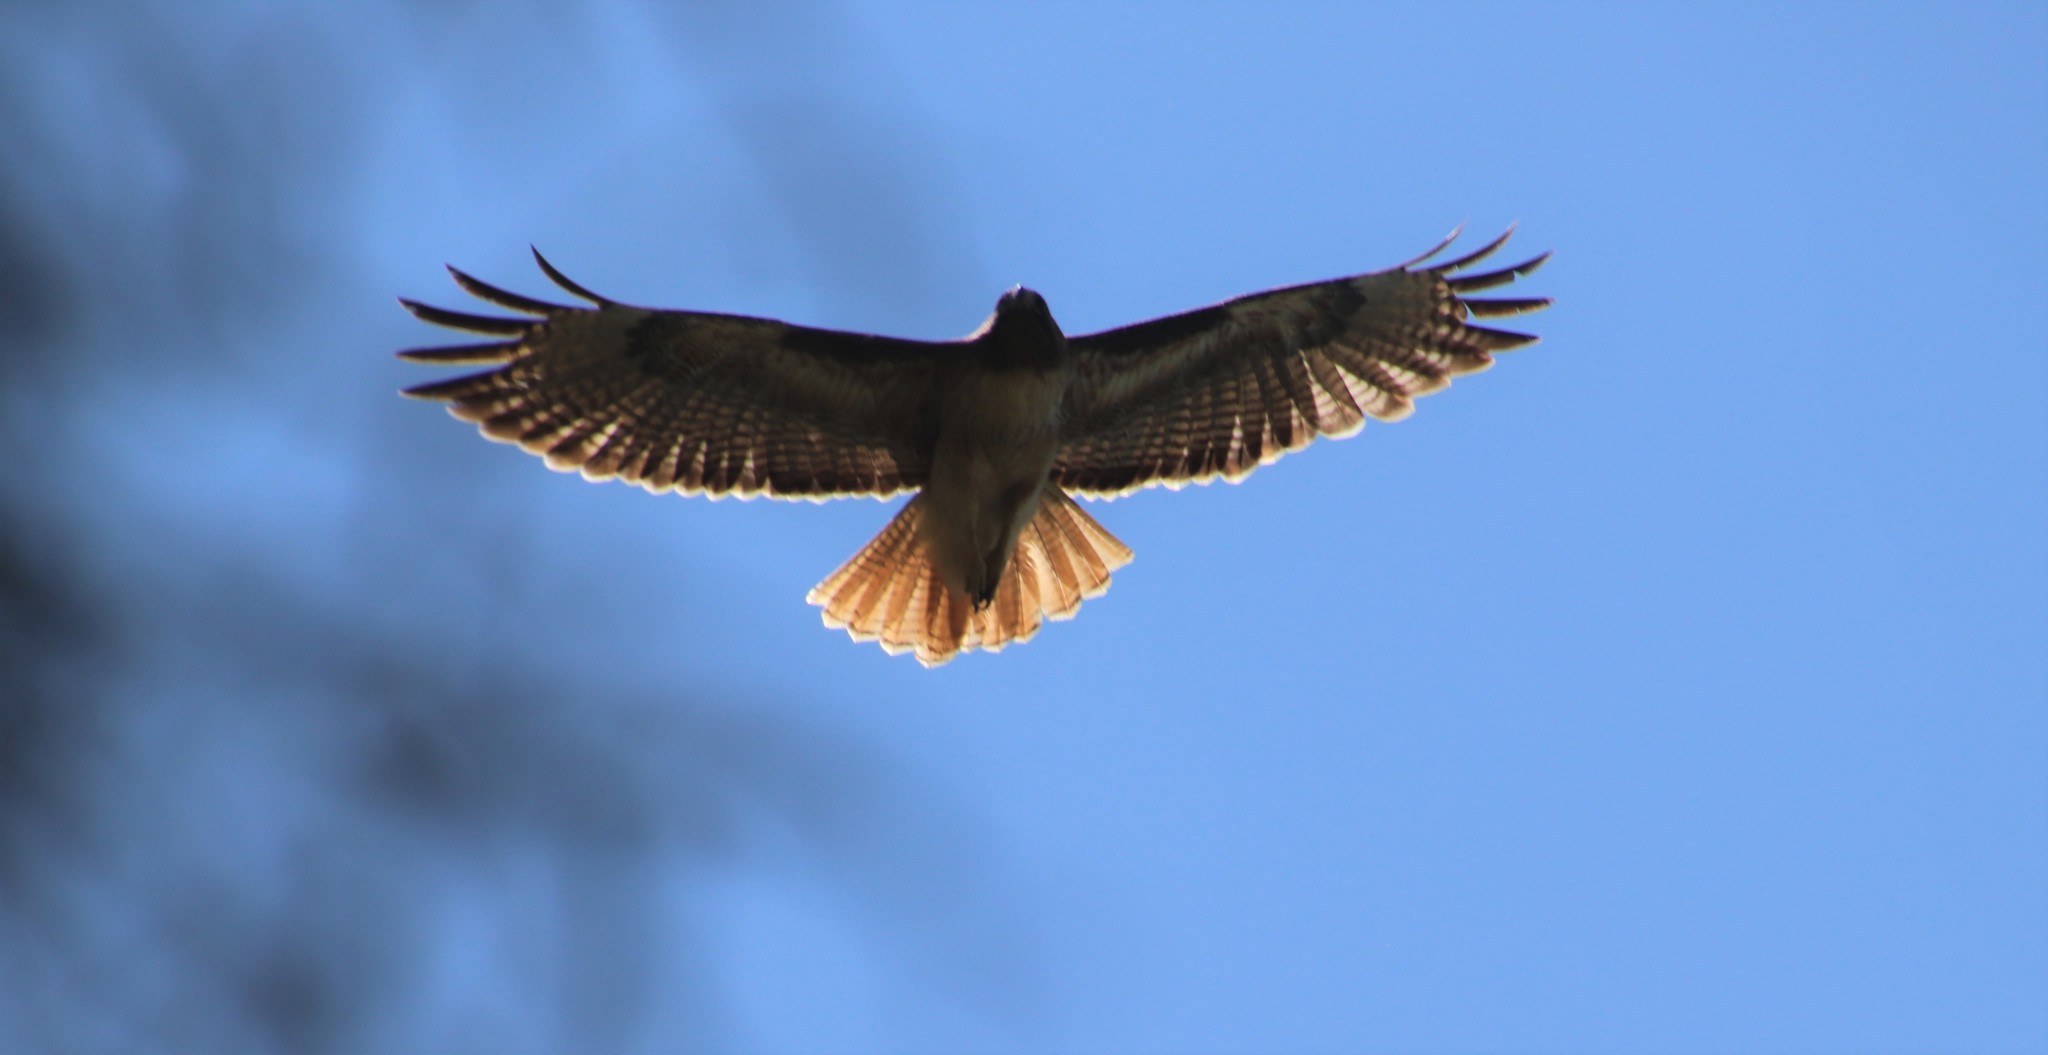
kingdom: Animalia
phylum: Chordata
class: Aves
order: Accipitriformes
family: Accipitridae
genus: Buteo
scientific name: Buteo jamaicensis
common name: Red-tailed hawk
